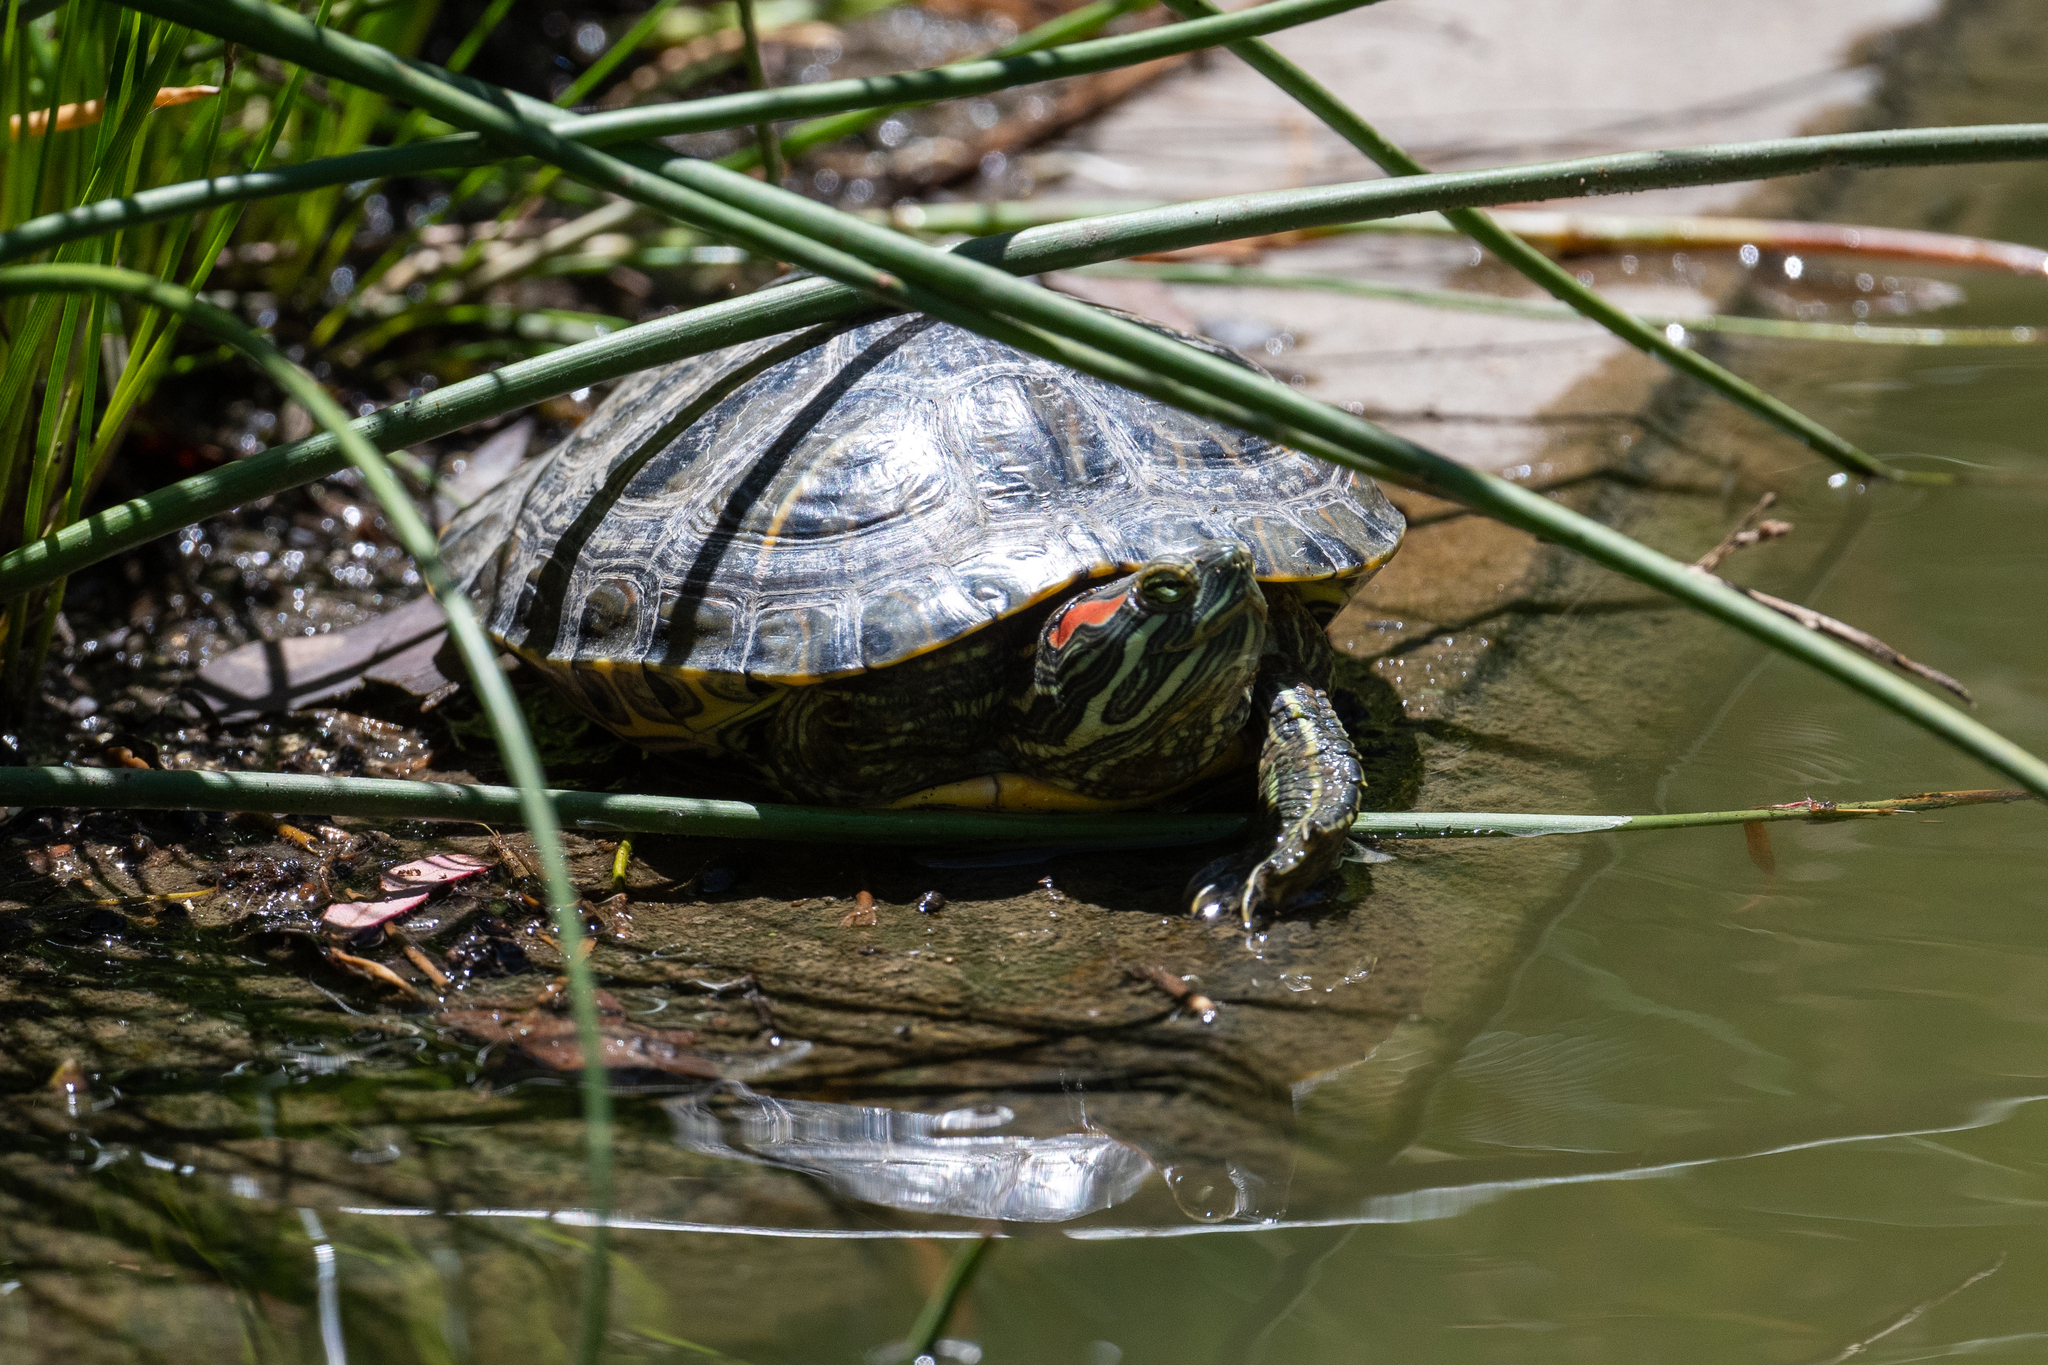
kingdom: Animalia
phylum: Chordata
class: Testudines
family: Emydidae
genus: Trachemys
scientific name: Trachemys scripta
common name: Slider
